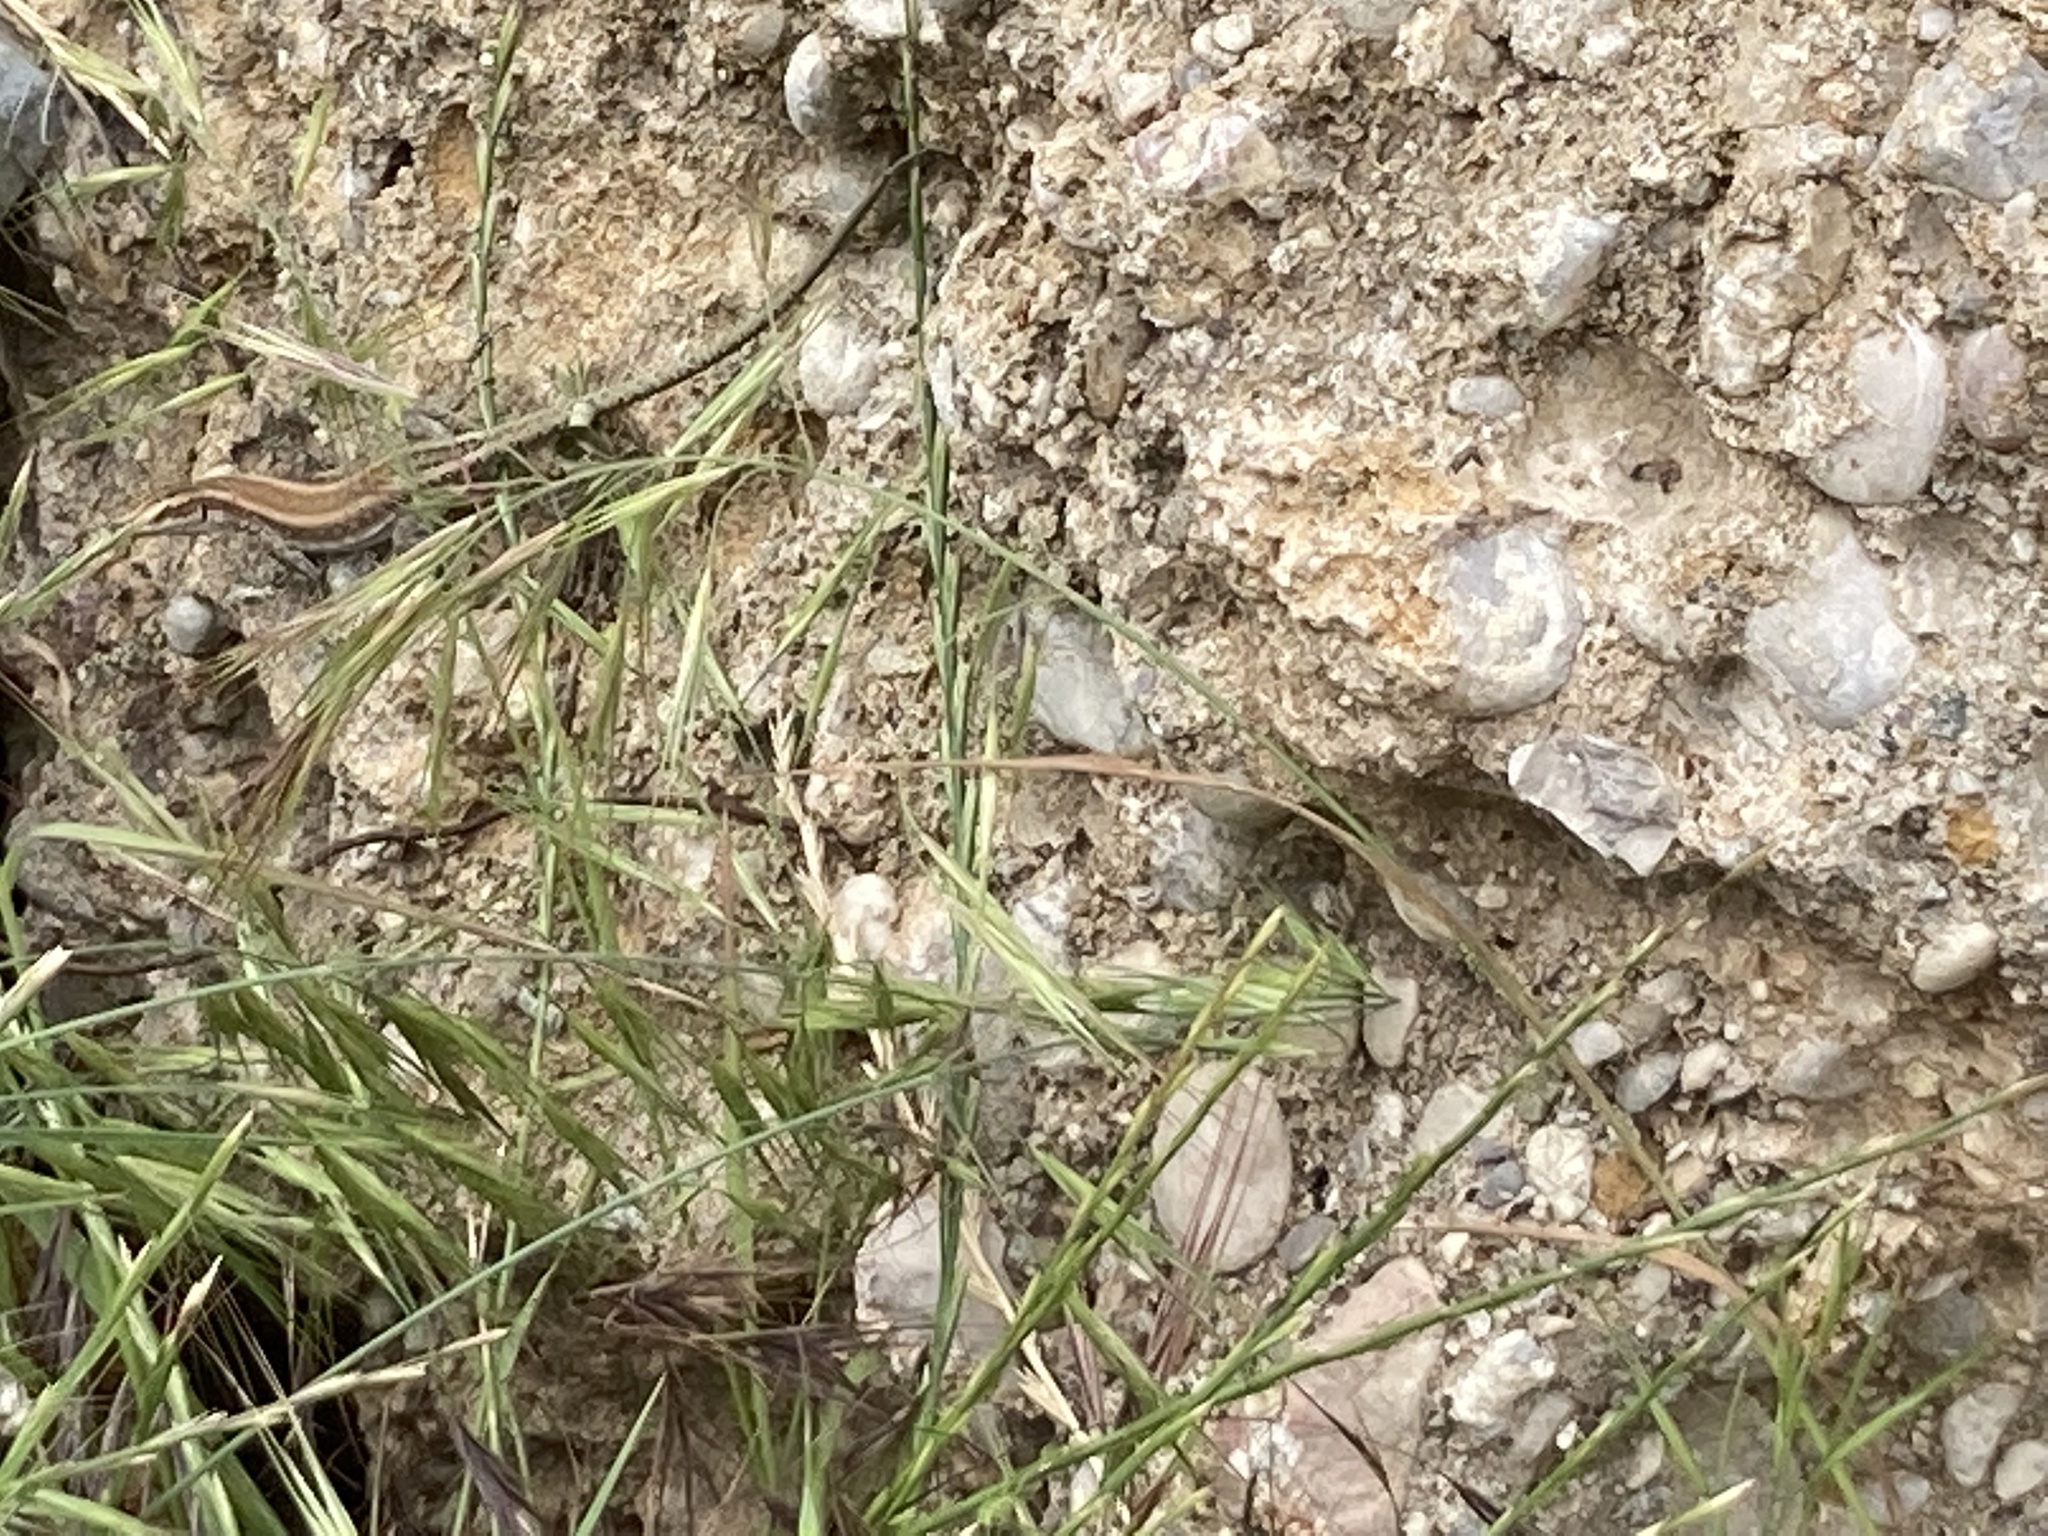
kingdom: Animalia
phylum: Chordata
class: Squamata
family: Lacertidae
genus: Anatololacerta
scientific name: Anatololacerta pelasgiana
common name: Pelasgian rock lizard
